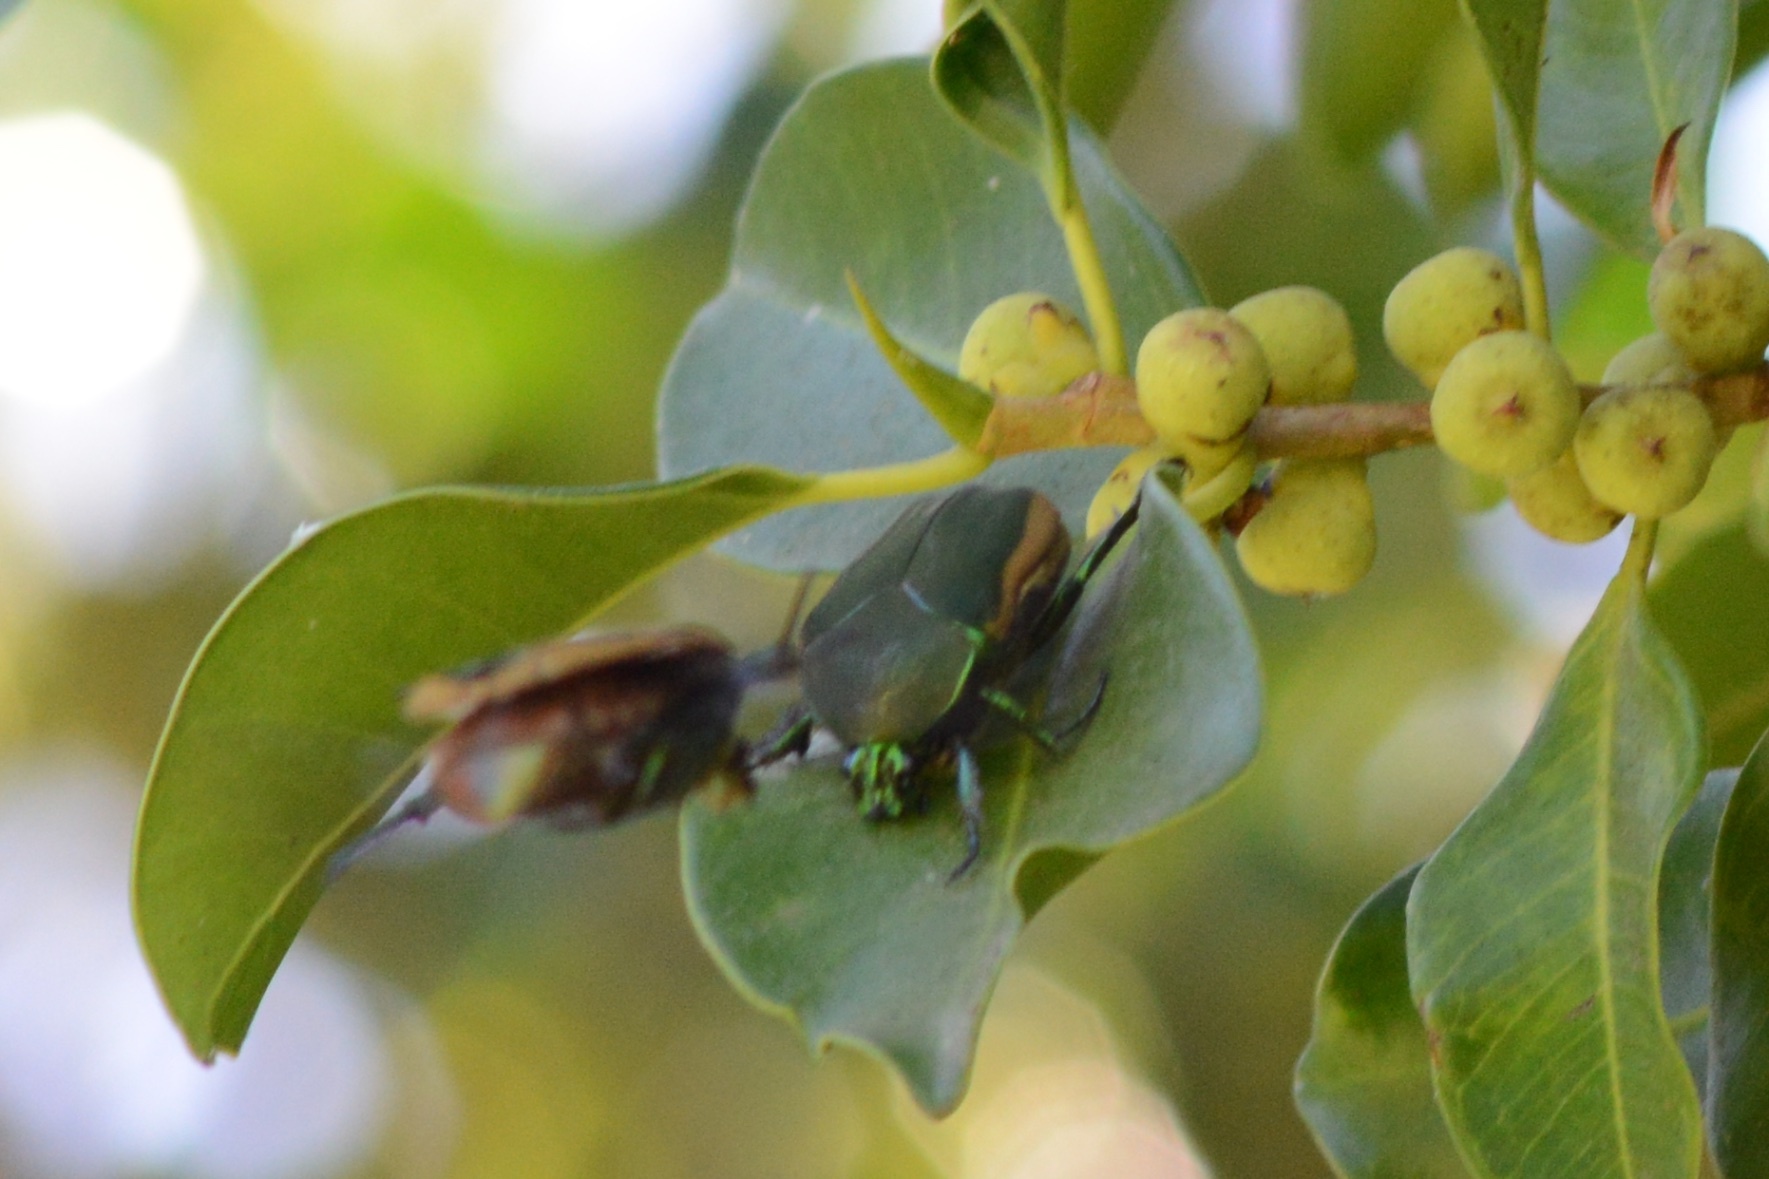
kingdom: Animalia
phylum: Arthropoda
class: Insecta
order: Coleoptera
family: Scarabaeidae
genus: Cotinis
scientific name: Cotinis mutabilis
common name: Figeater beetle
